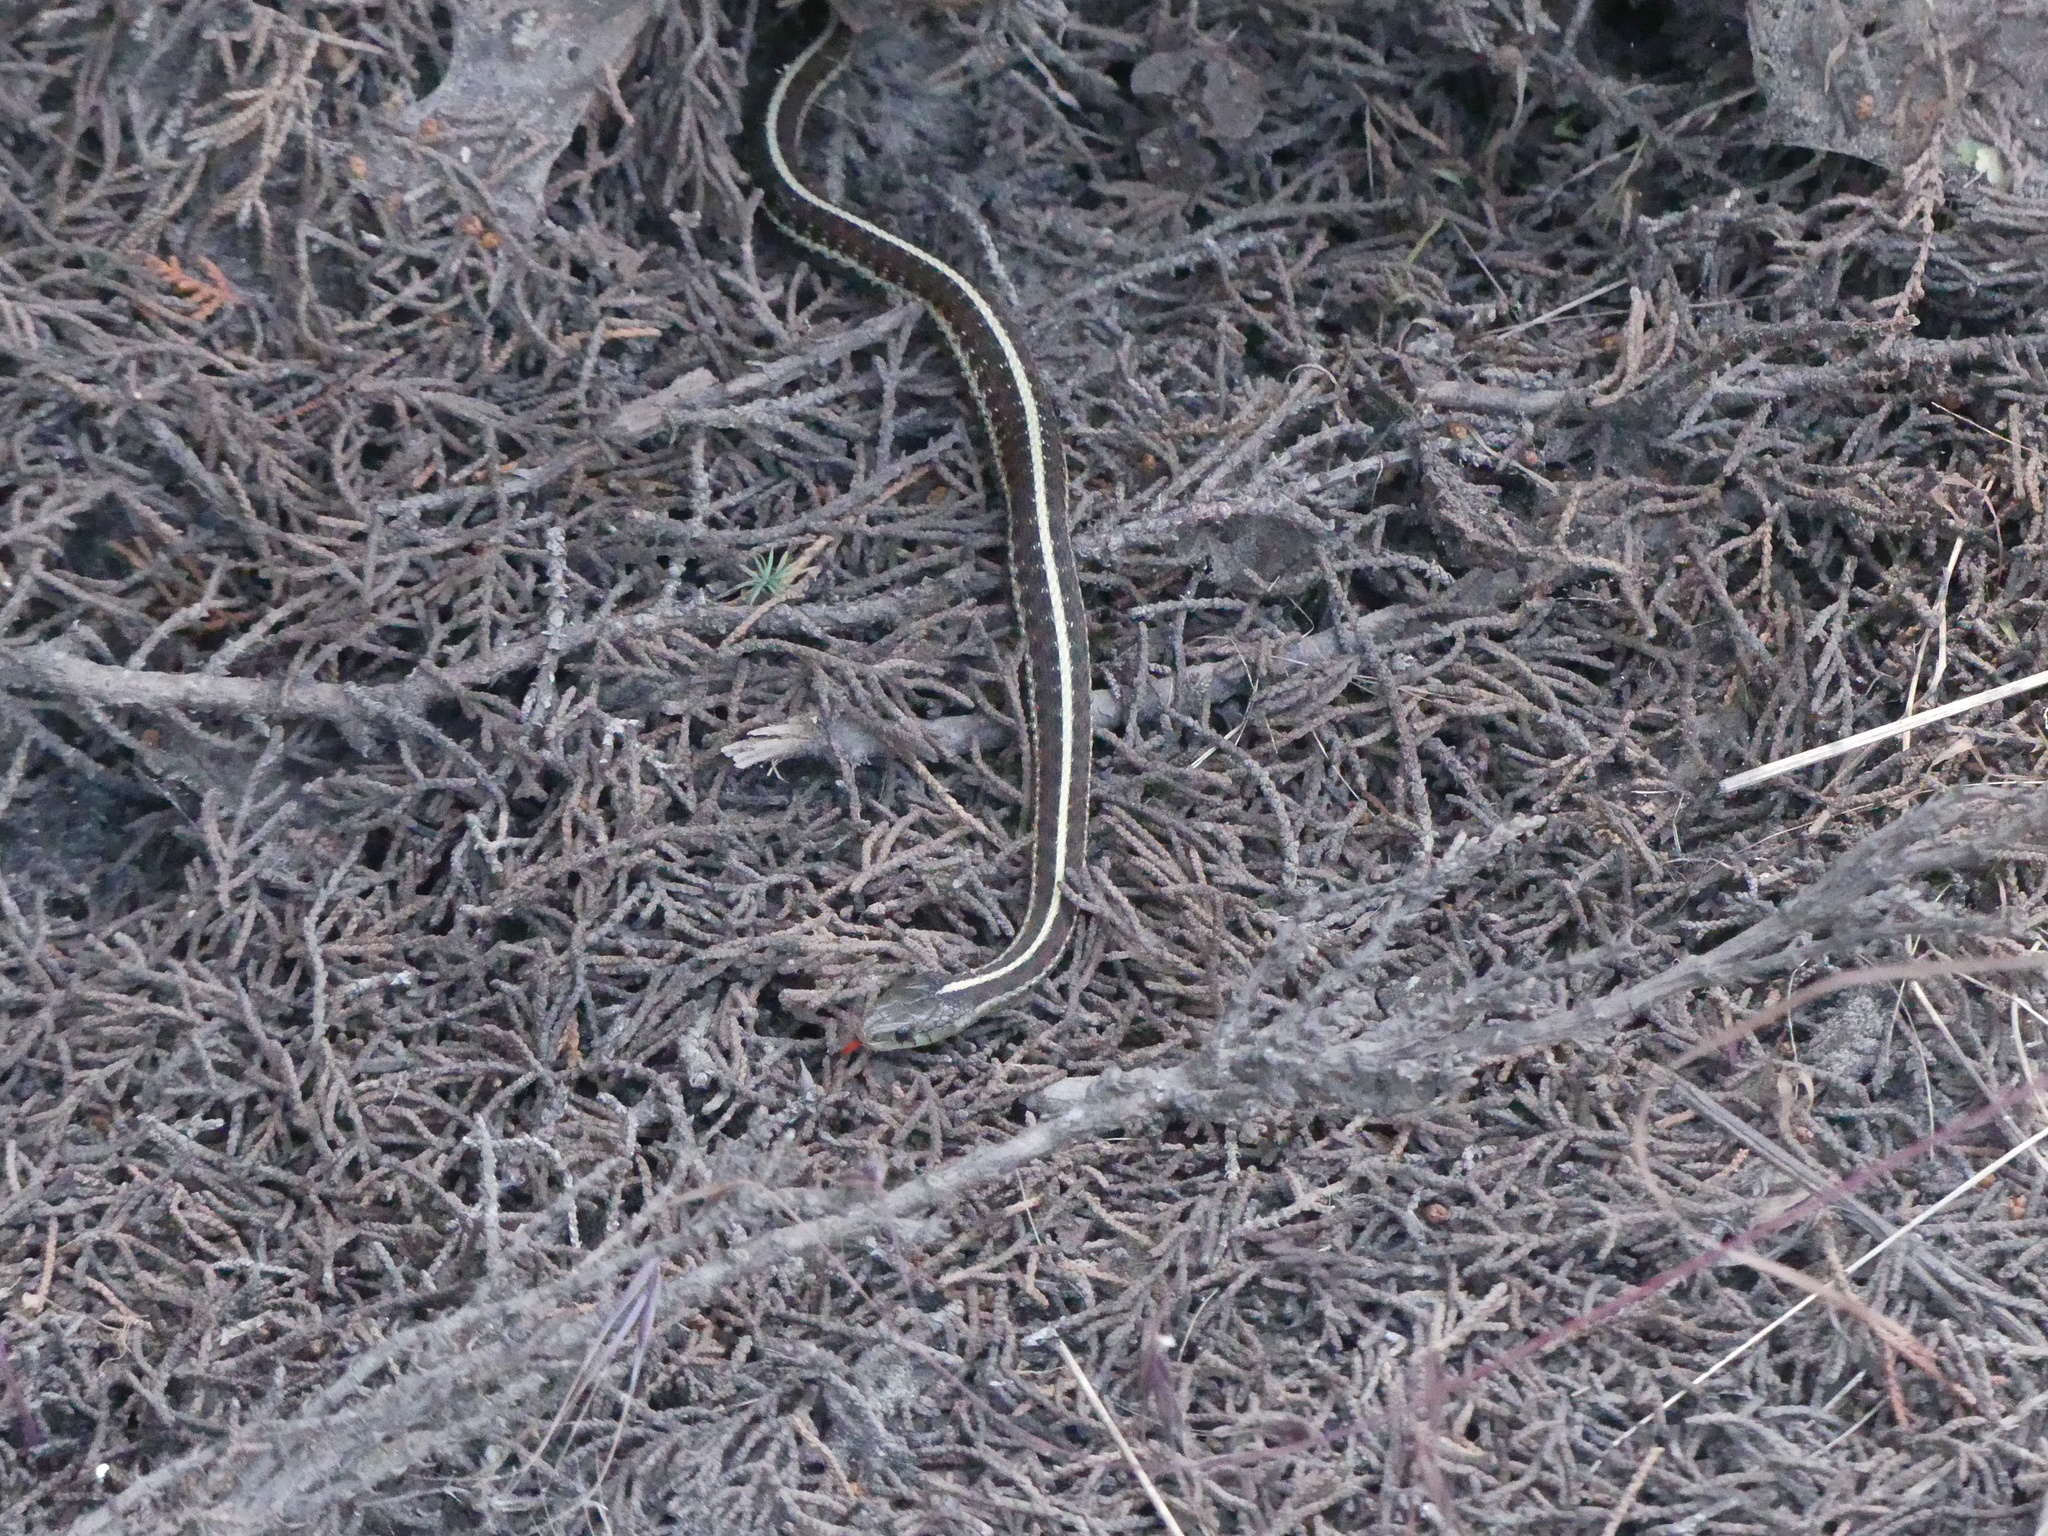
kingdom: Animalia
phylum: Chordata
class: Squamata
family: Colubridae
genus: Thamnophis
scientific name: Thamnophis elegans
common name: Western terrestrial garter snake
